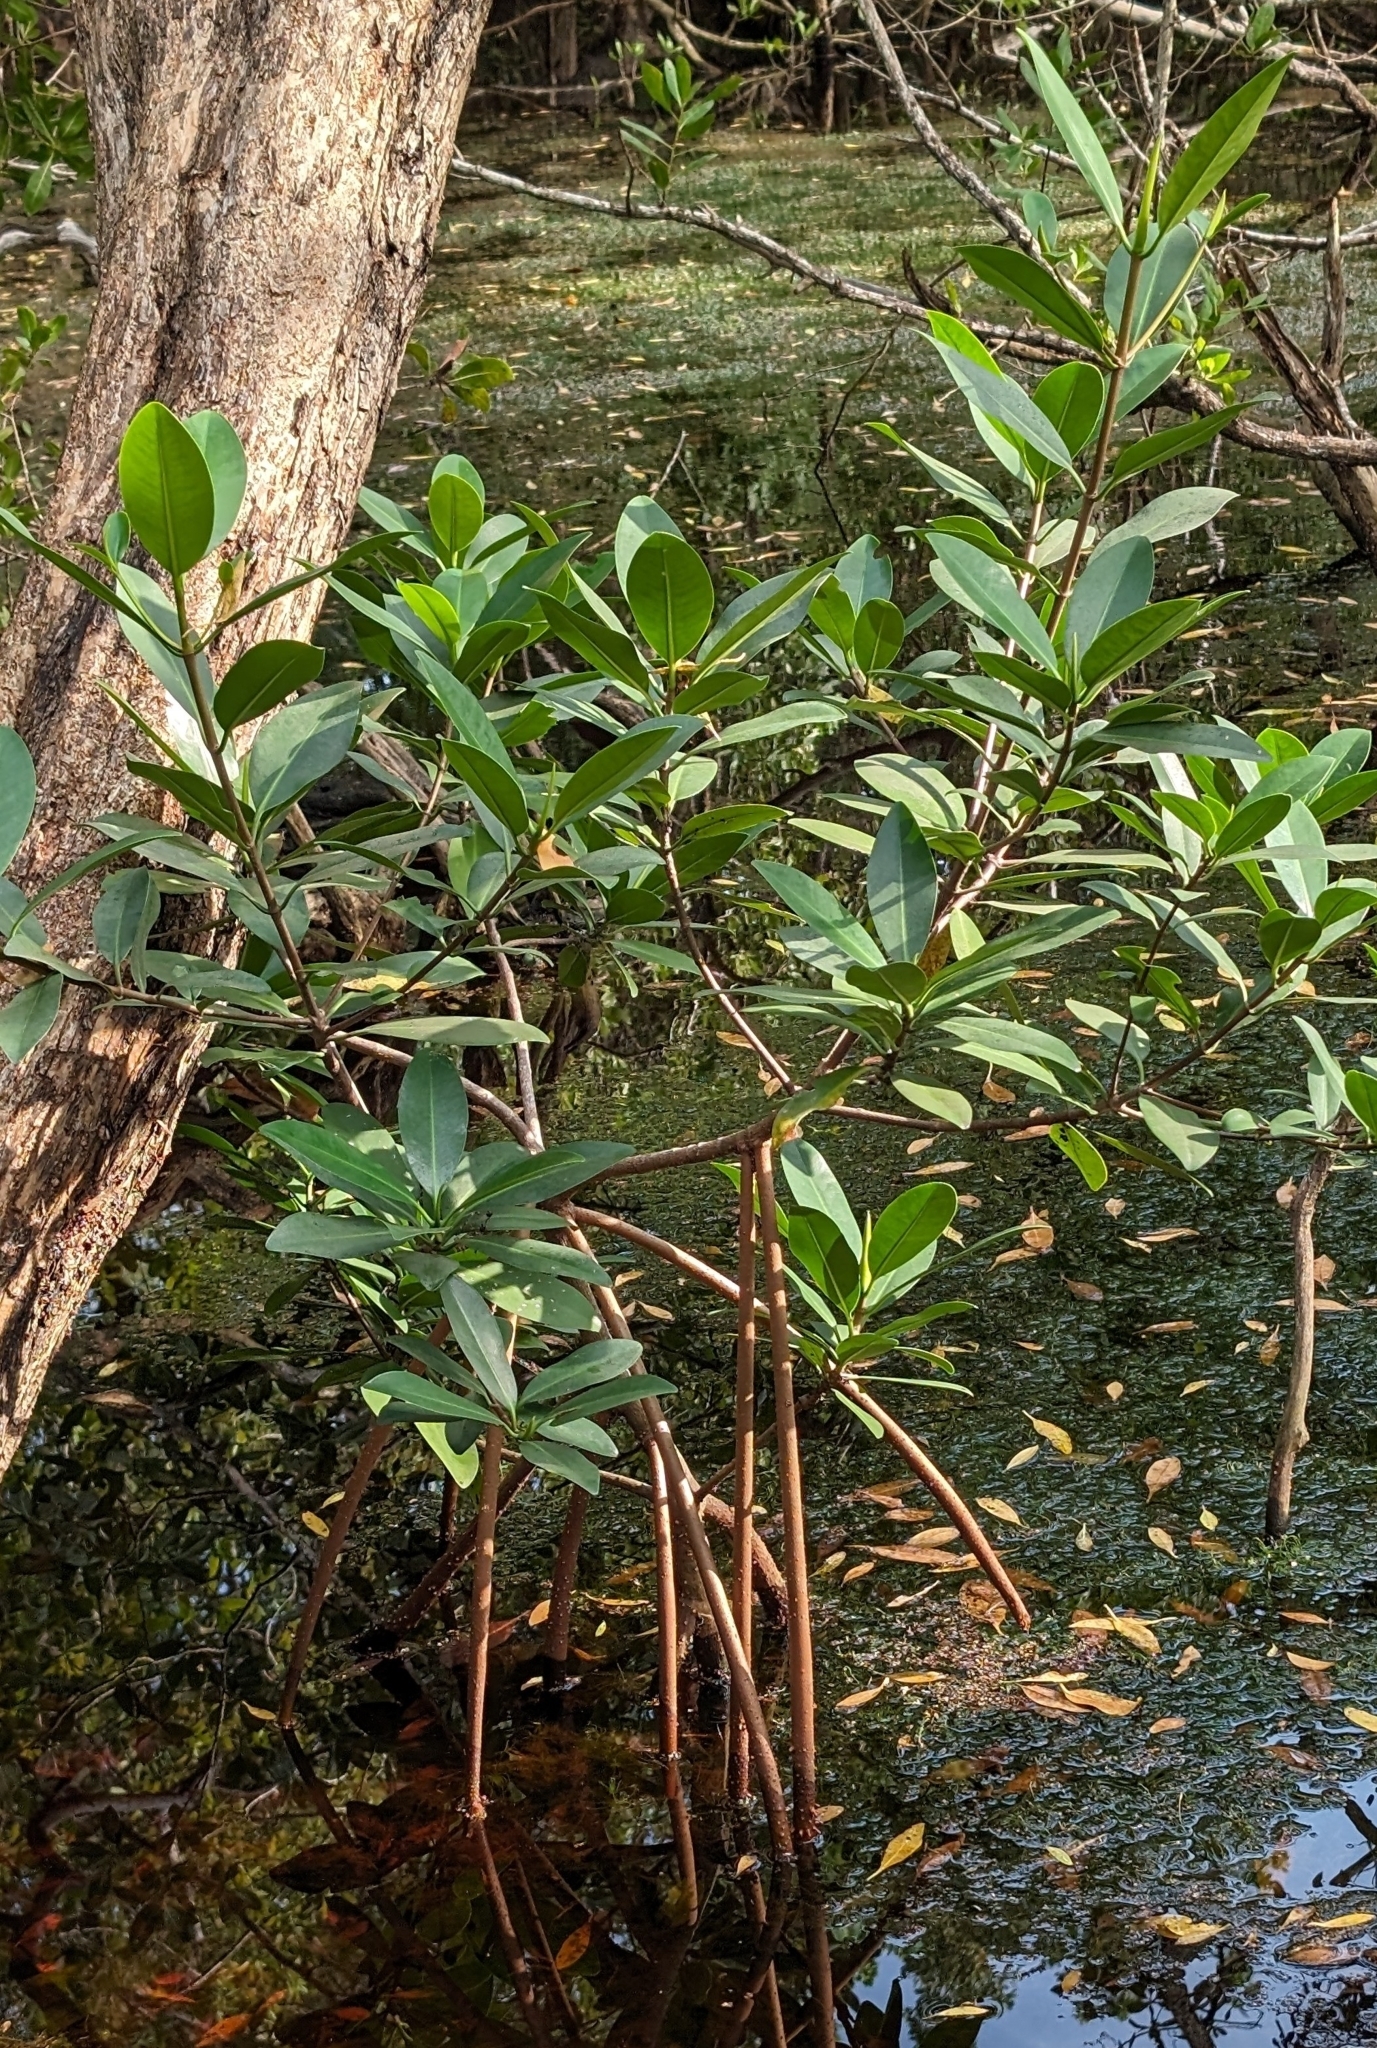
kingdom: Plantae
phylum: Tracheophyta
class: Magnoliopsida
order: Malpighiales
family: Rhizophoraceae
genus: Rhizophora
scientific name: Rhizophora mangle
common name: Red mangrove
